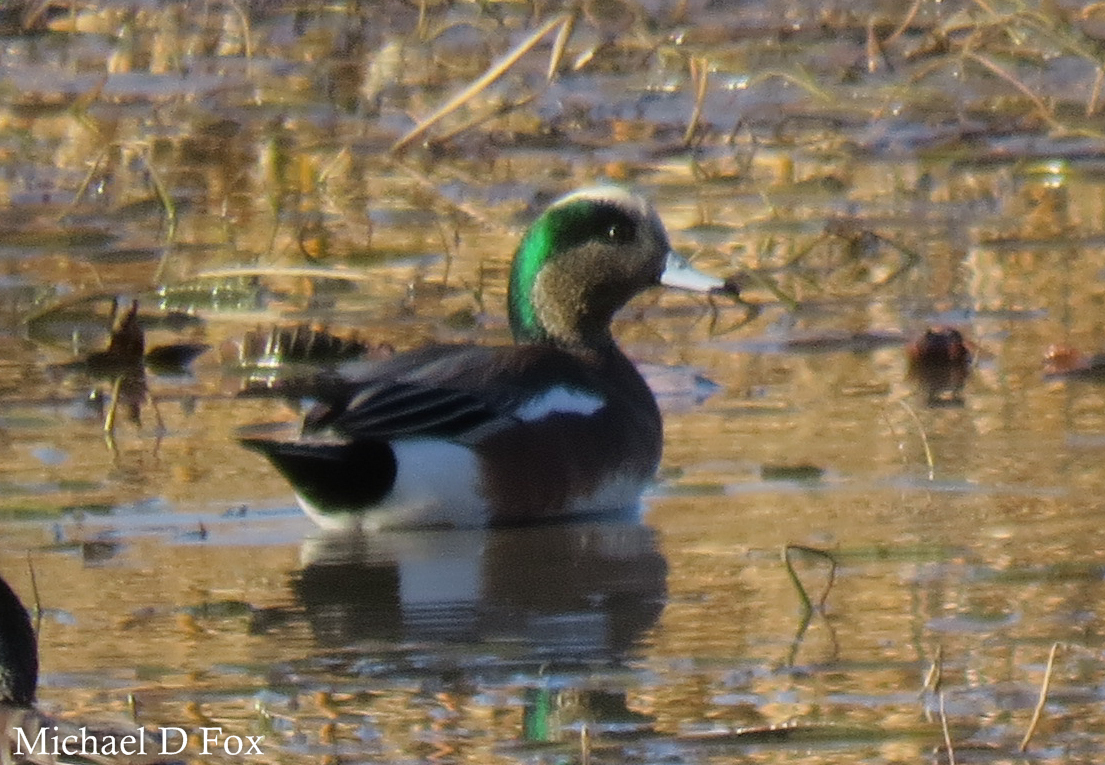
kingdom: Animalia
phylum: Chordata
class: Aves
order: Anseriformes
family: Anatidae
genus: Mareca
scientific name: Mareca americana
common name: American wigeon
